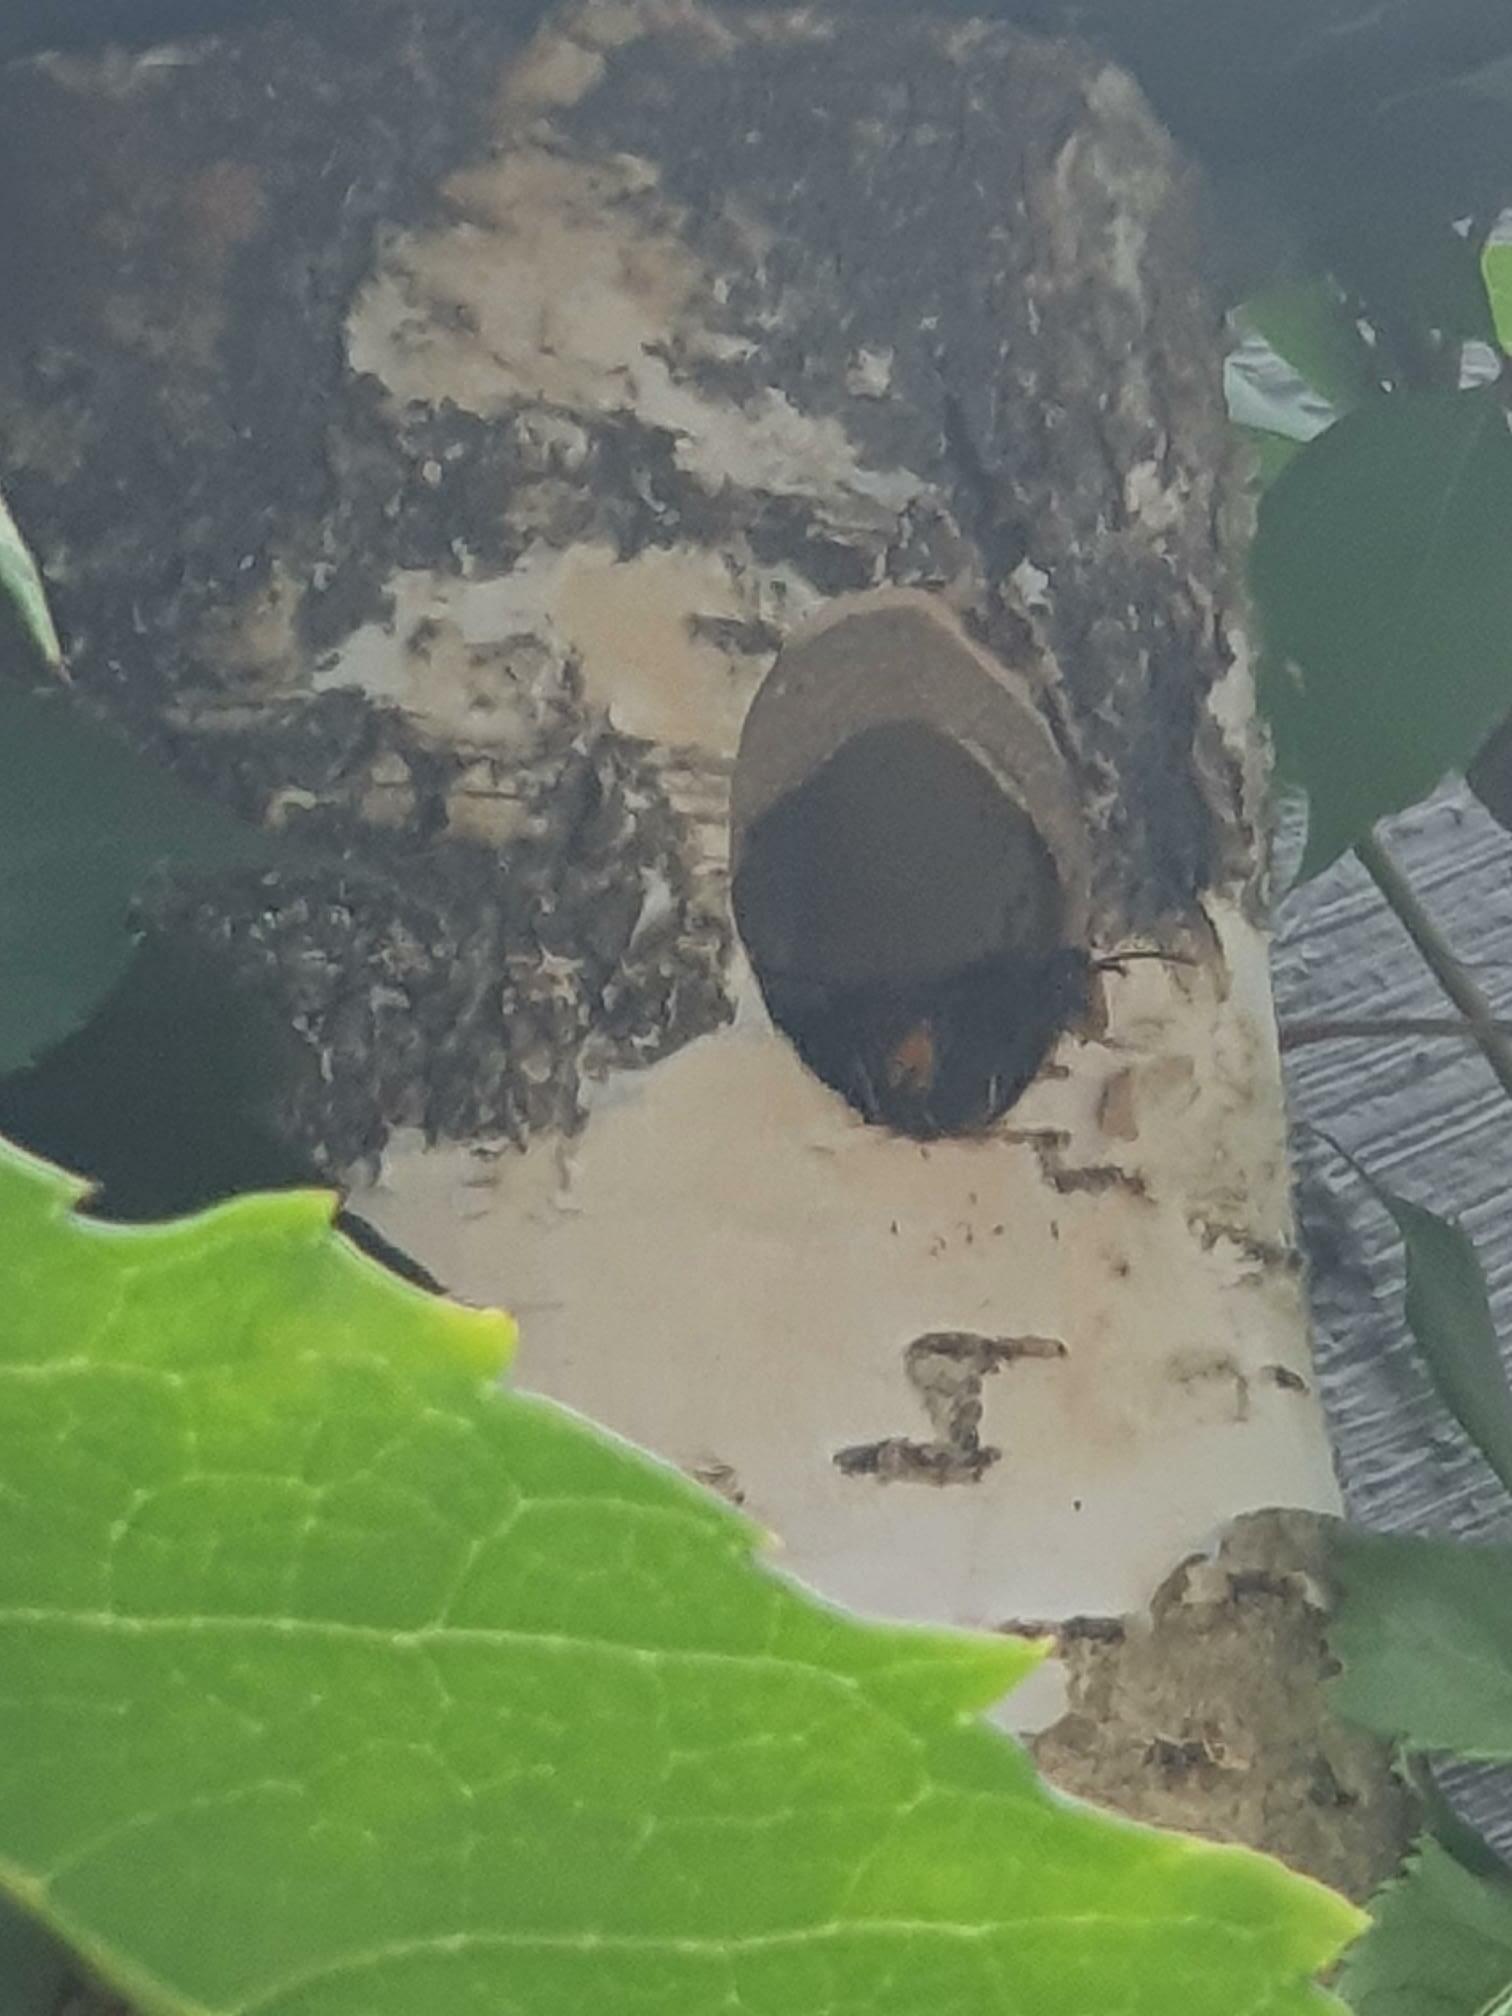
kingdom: Animalia
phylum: Arthropoda
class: Insecta
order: Hymenoptera
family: Vespidae
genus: Vespa
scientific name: Vespa velutina
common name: Asian hornet
